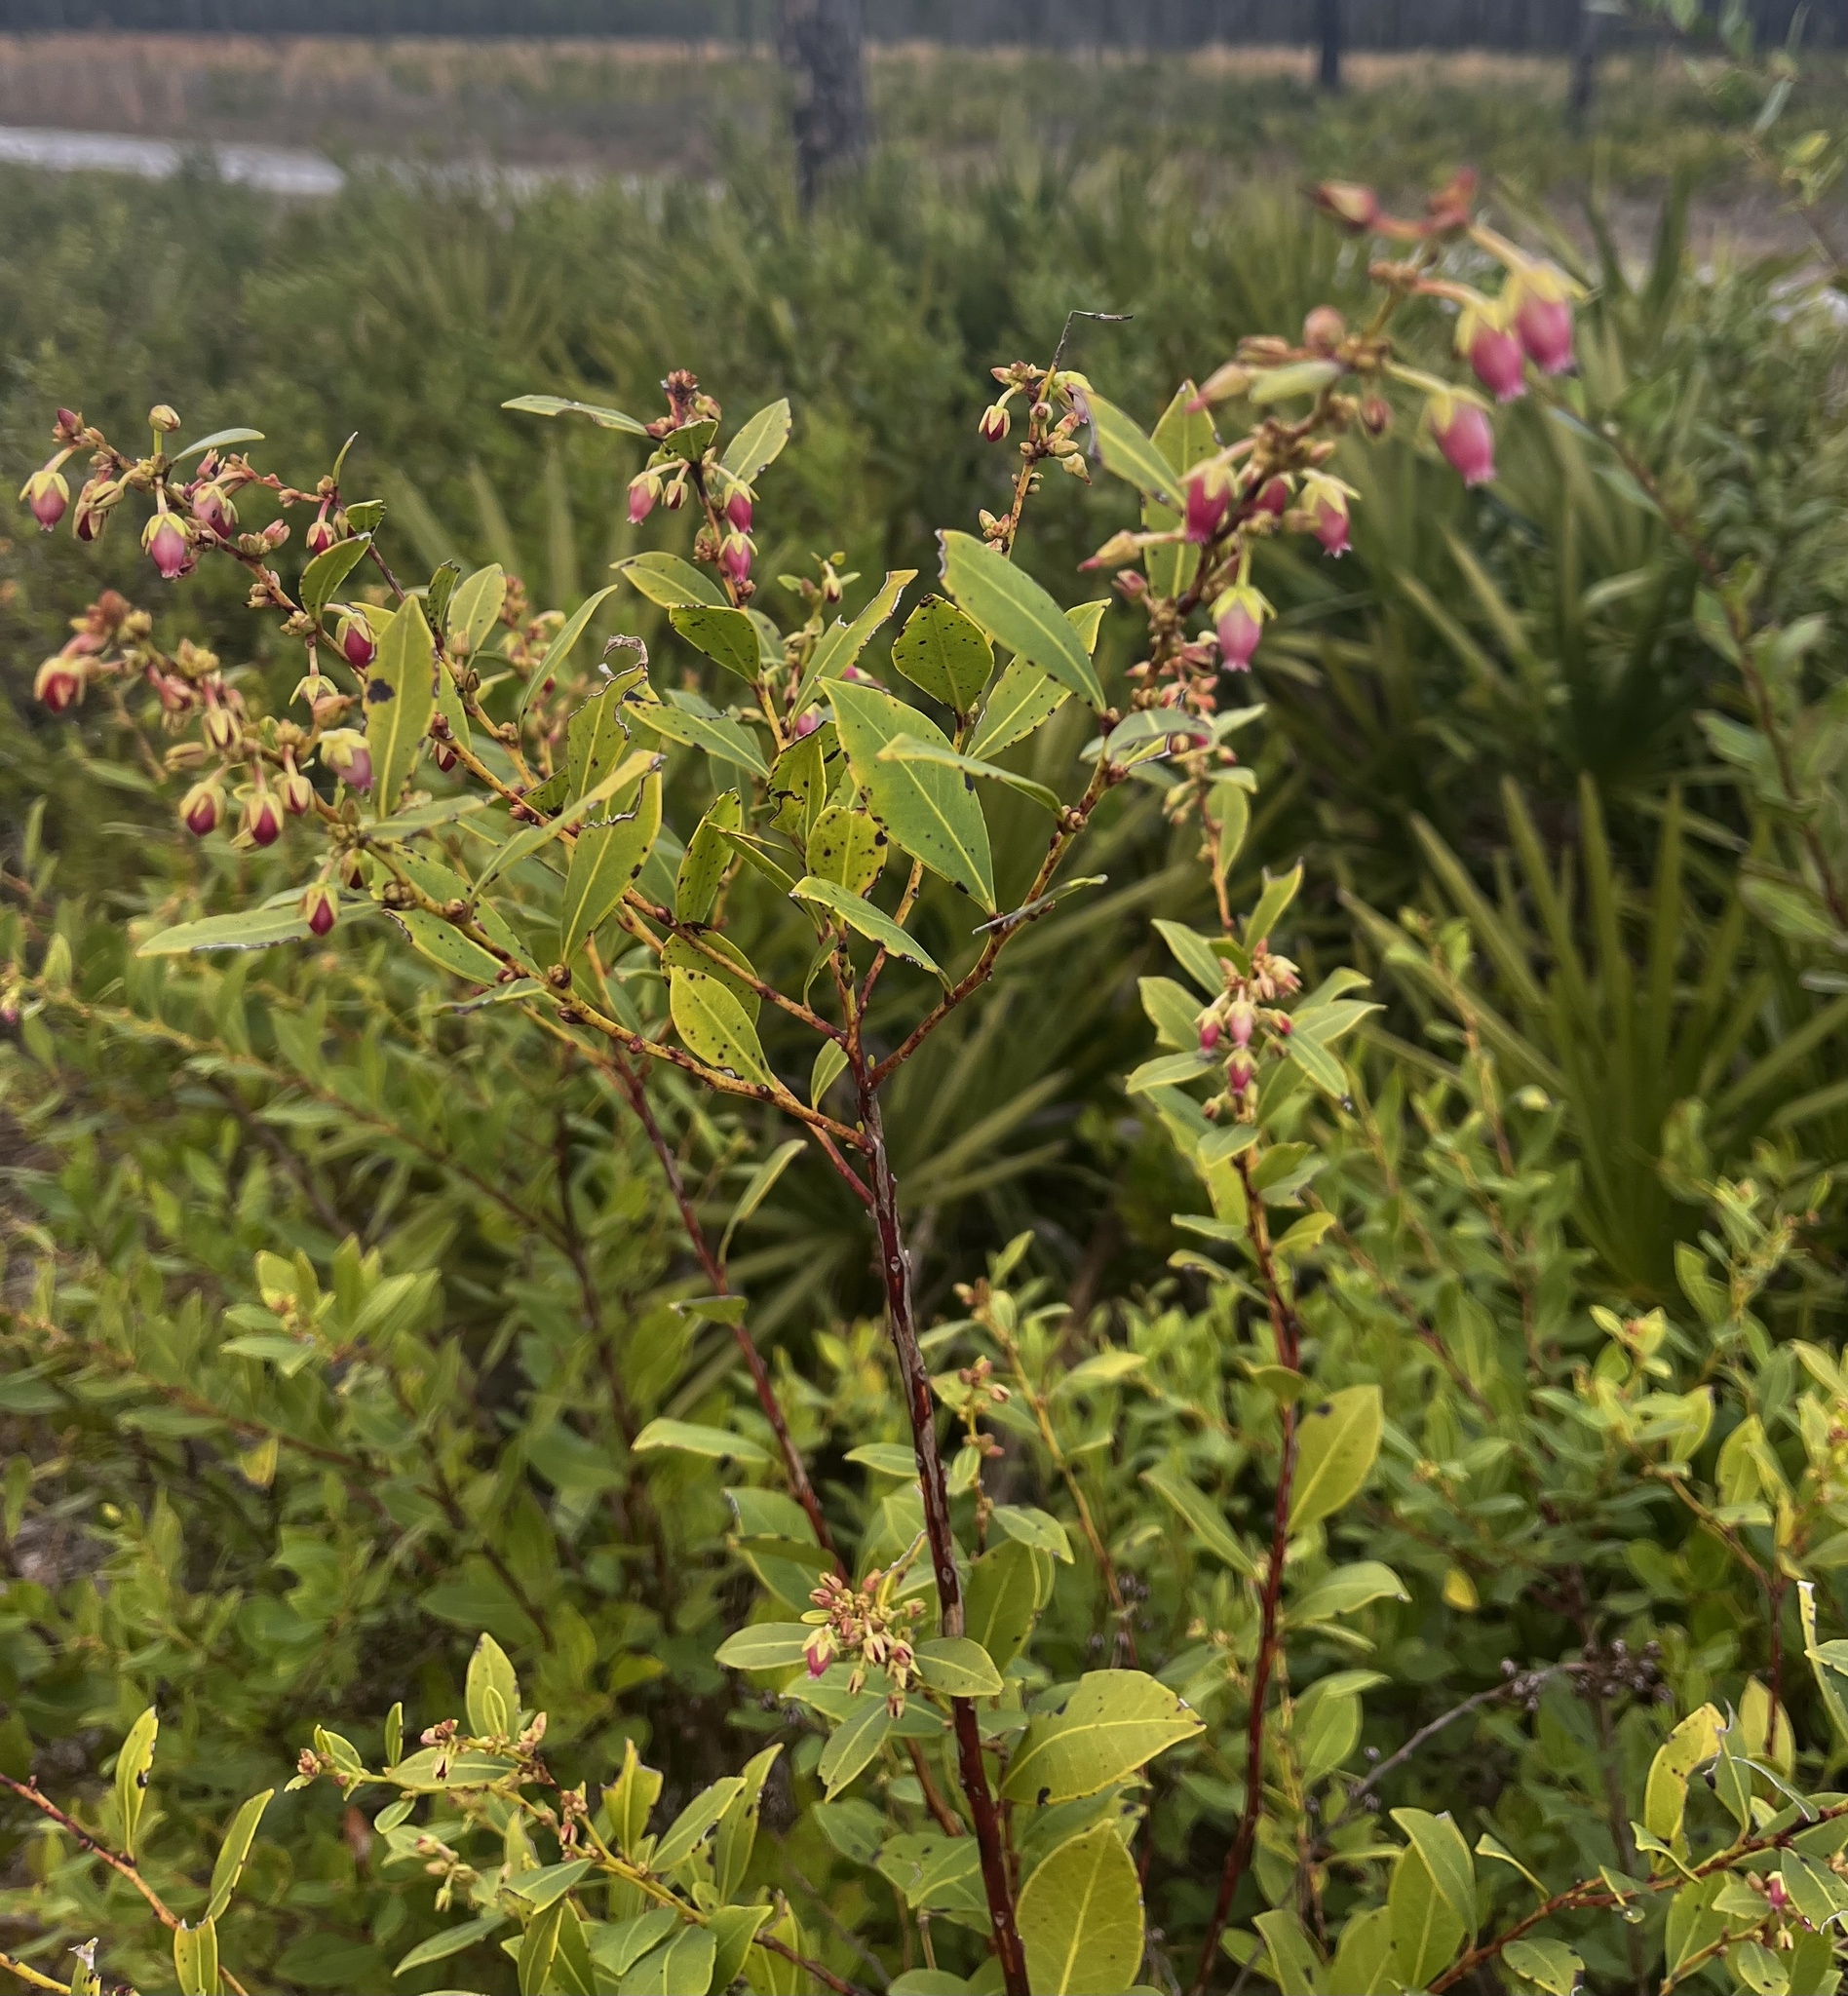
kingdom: Plantae
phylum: Tracheophyta
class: Magnoliopsida
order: Ericales
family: Ericaceae
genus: Lyonia
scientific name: Lyonia lucida
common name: Fetterbush
